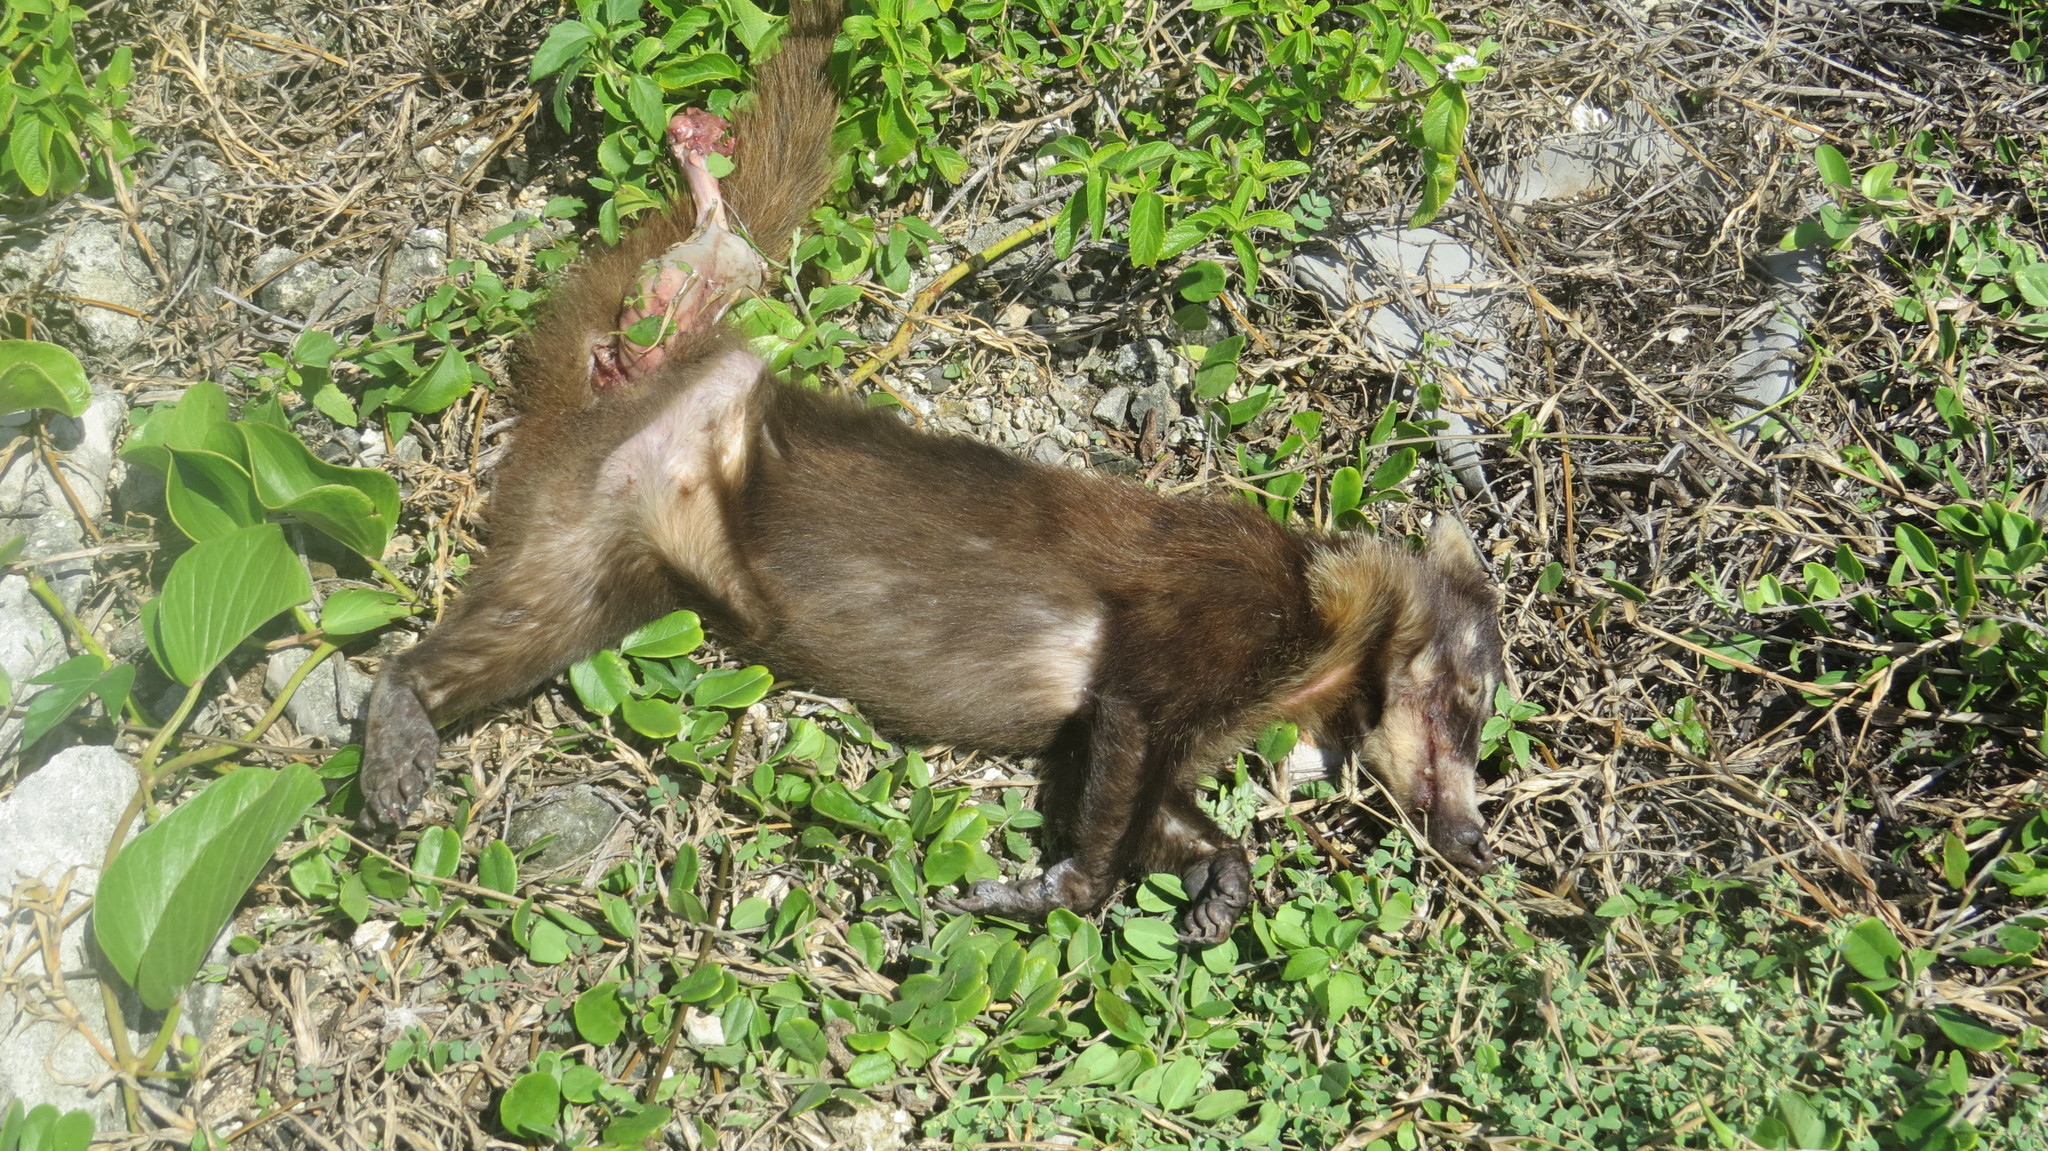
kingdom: Animalia
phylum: Chordata
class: Mammalia
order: Carnivora
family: Procyonidae
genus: Nasua
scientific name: Nasua narica
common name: White-nosed coati
